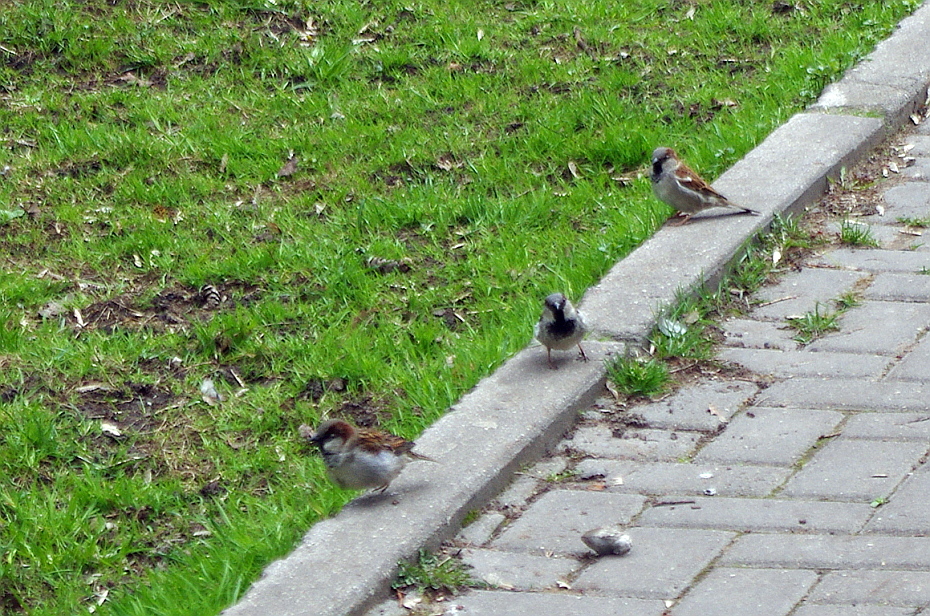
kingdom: Animalia
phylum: Chordata
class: Aves
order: Passeriformes
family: Passeridae
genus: Passer
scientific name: Passer domesticus
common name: House sparrow
